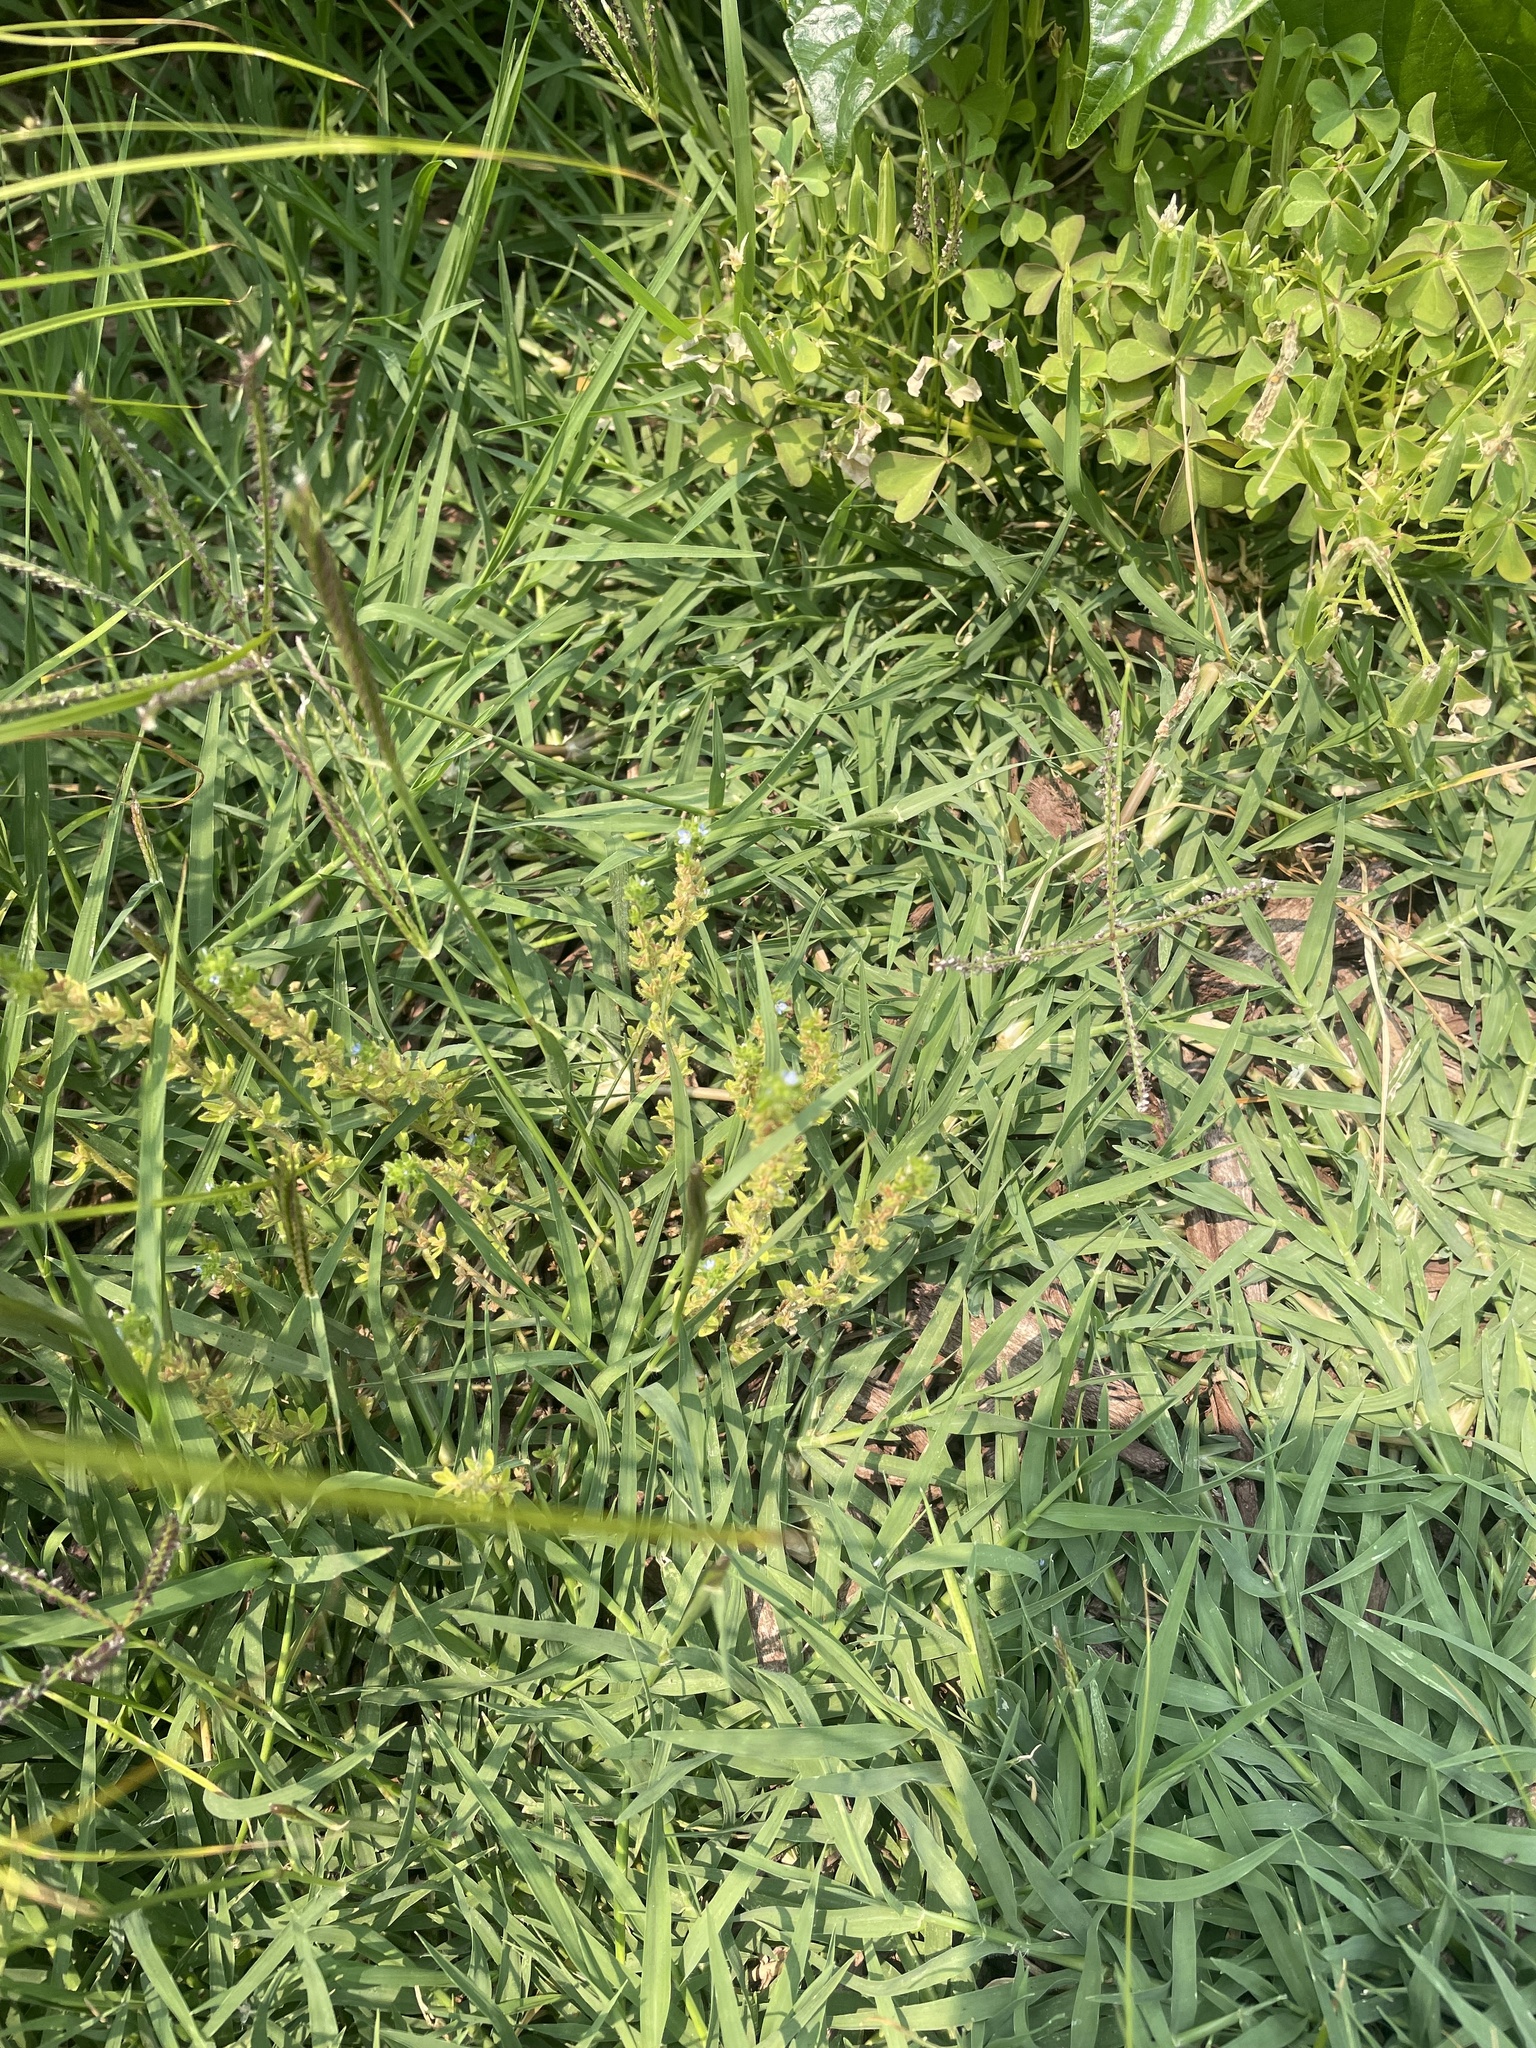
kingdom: Plantae
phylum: Tracheophyta
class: Magnoliopsida
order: Lamiales
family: Plantaginaceae
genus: Veronica
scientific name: Veronica arvensis
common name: Corn speedwell
